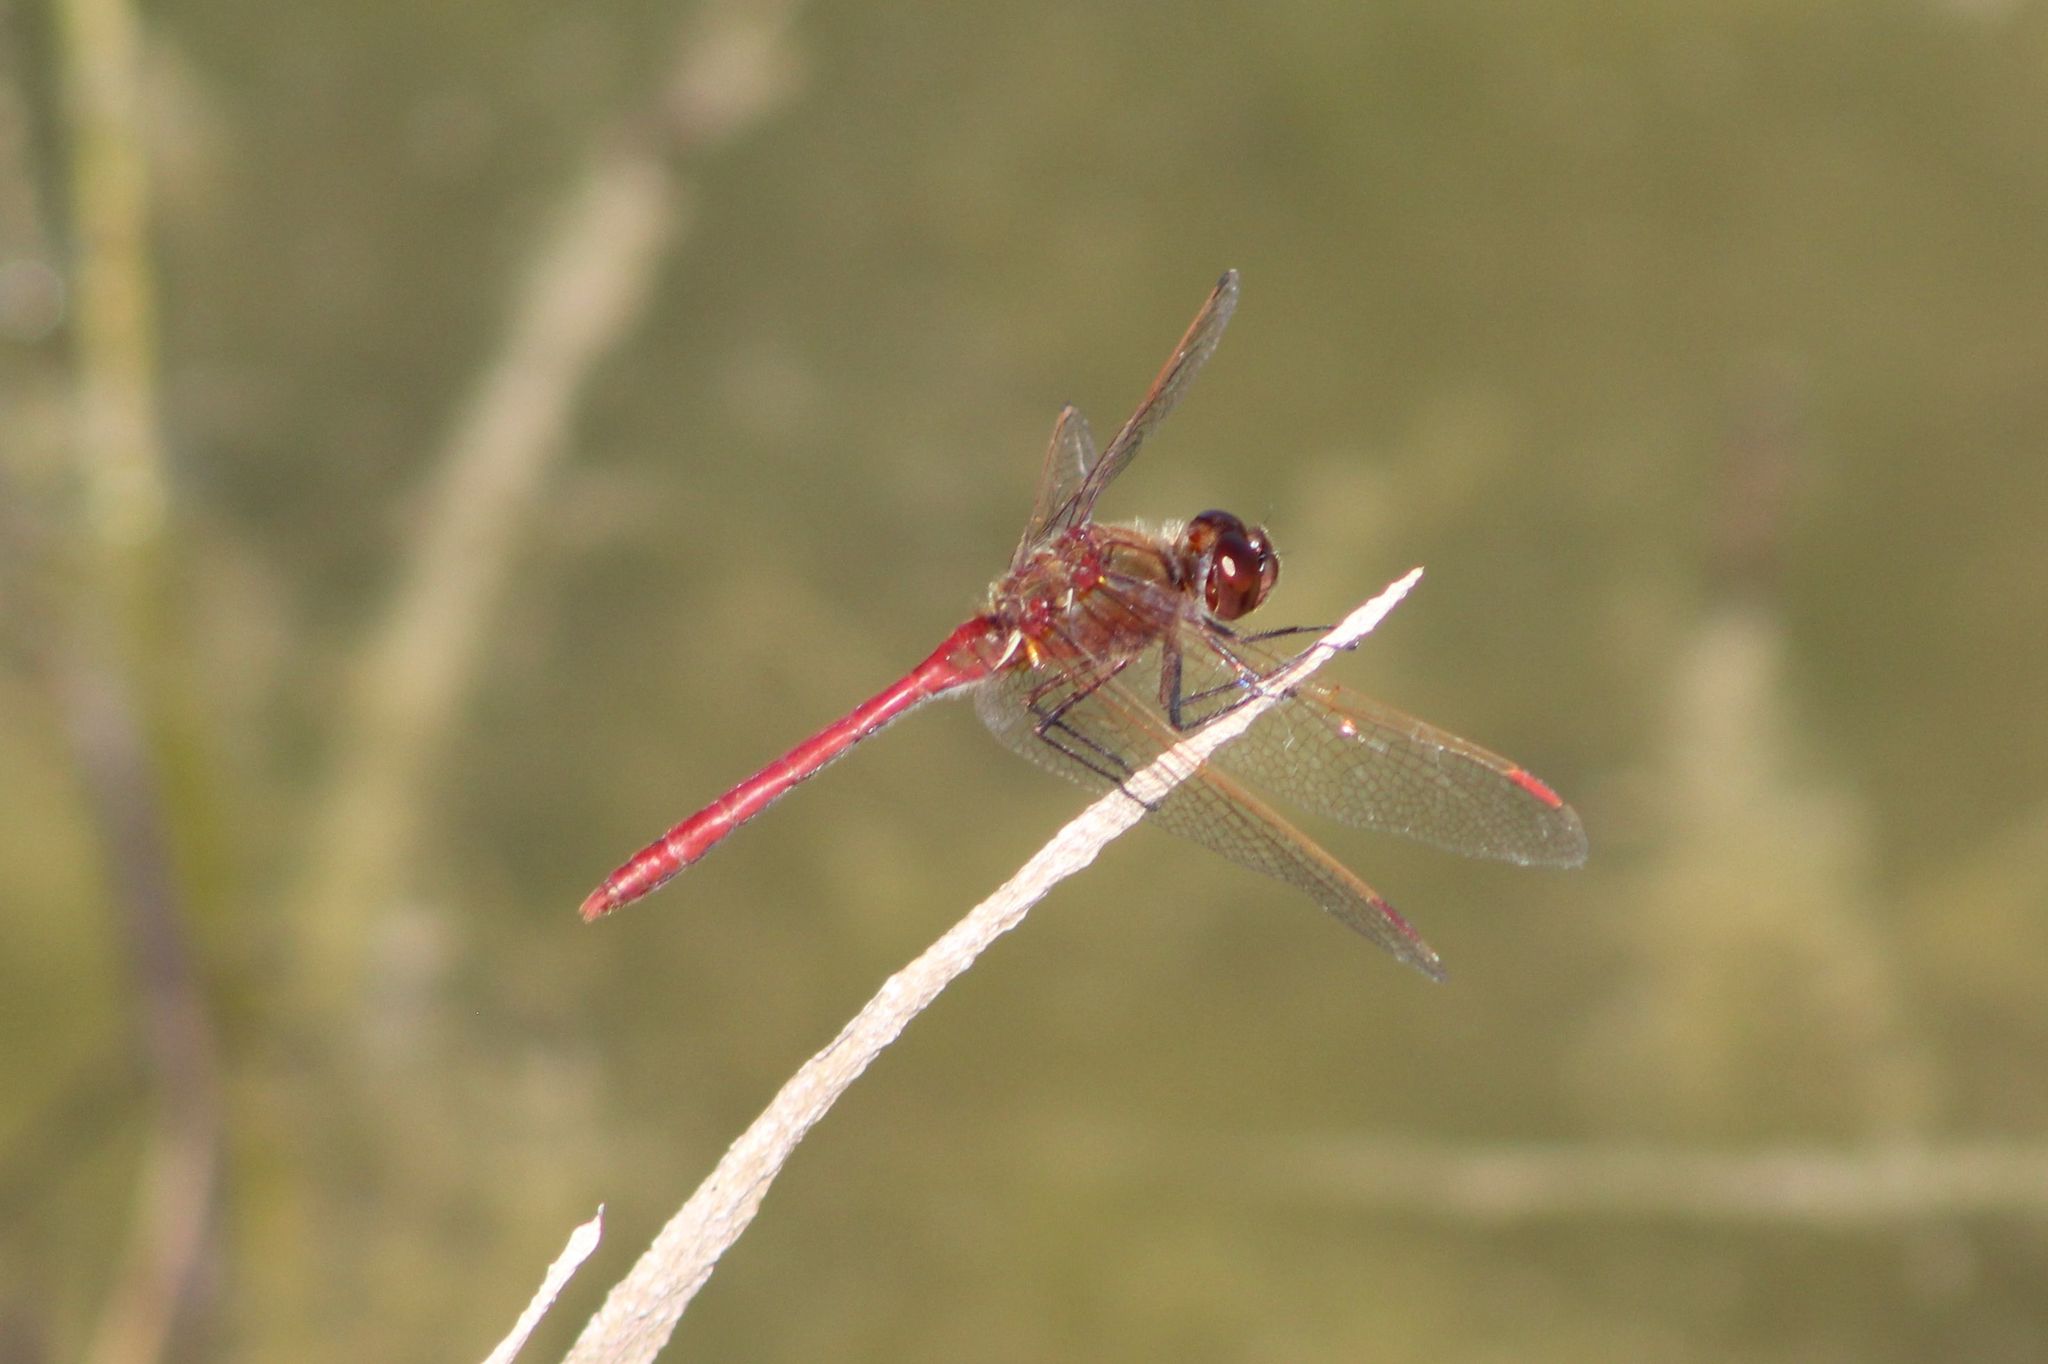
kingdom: Animalia
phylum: Arthropoda
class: Insecta
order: Odonata
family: Libellulidae
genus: Sympetrum
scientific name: Sympetrum costiferum
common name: Saffron-winged meadowhawk
